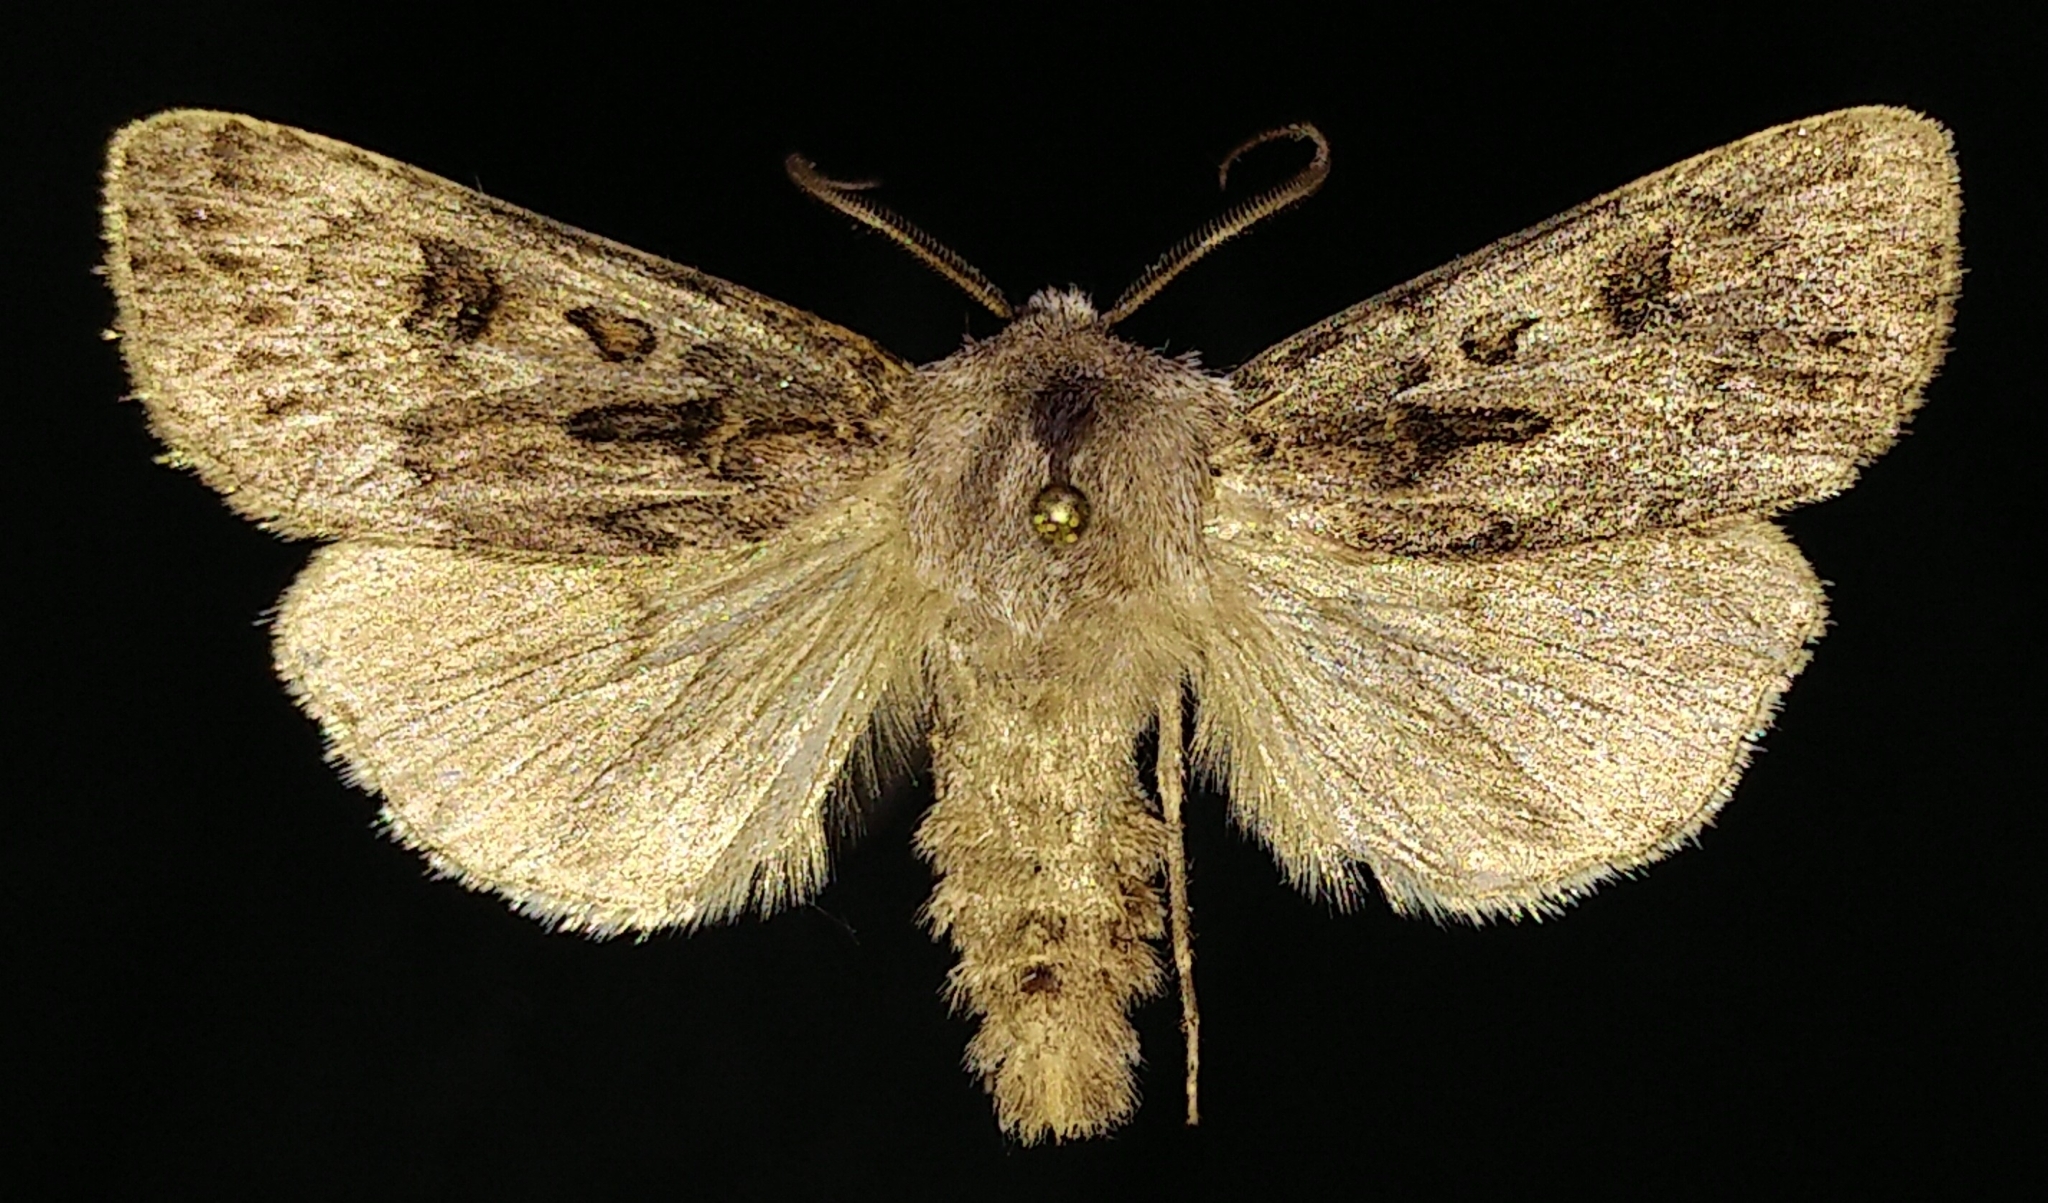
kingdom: Animalia
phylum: Arthropoda
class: Insecta
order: Lepidoptera
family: Noctuidae
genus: Agrotis
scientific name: Agrotis ruta
